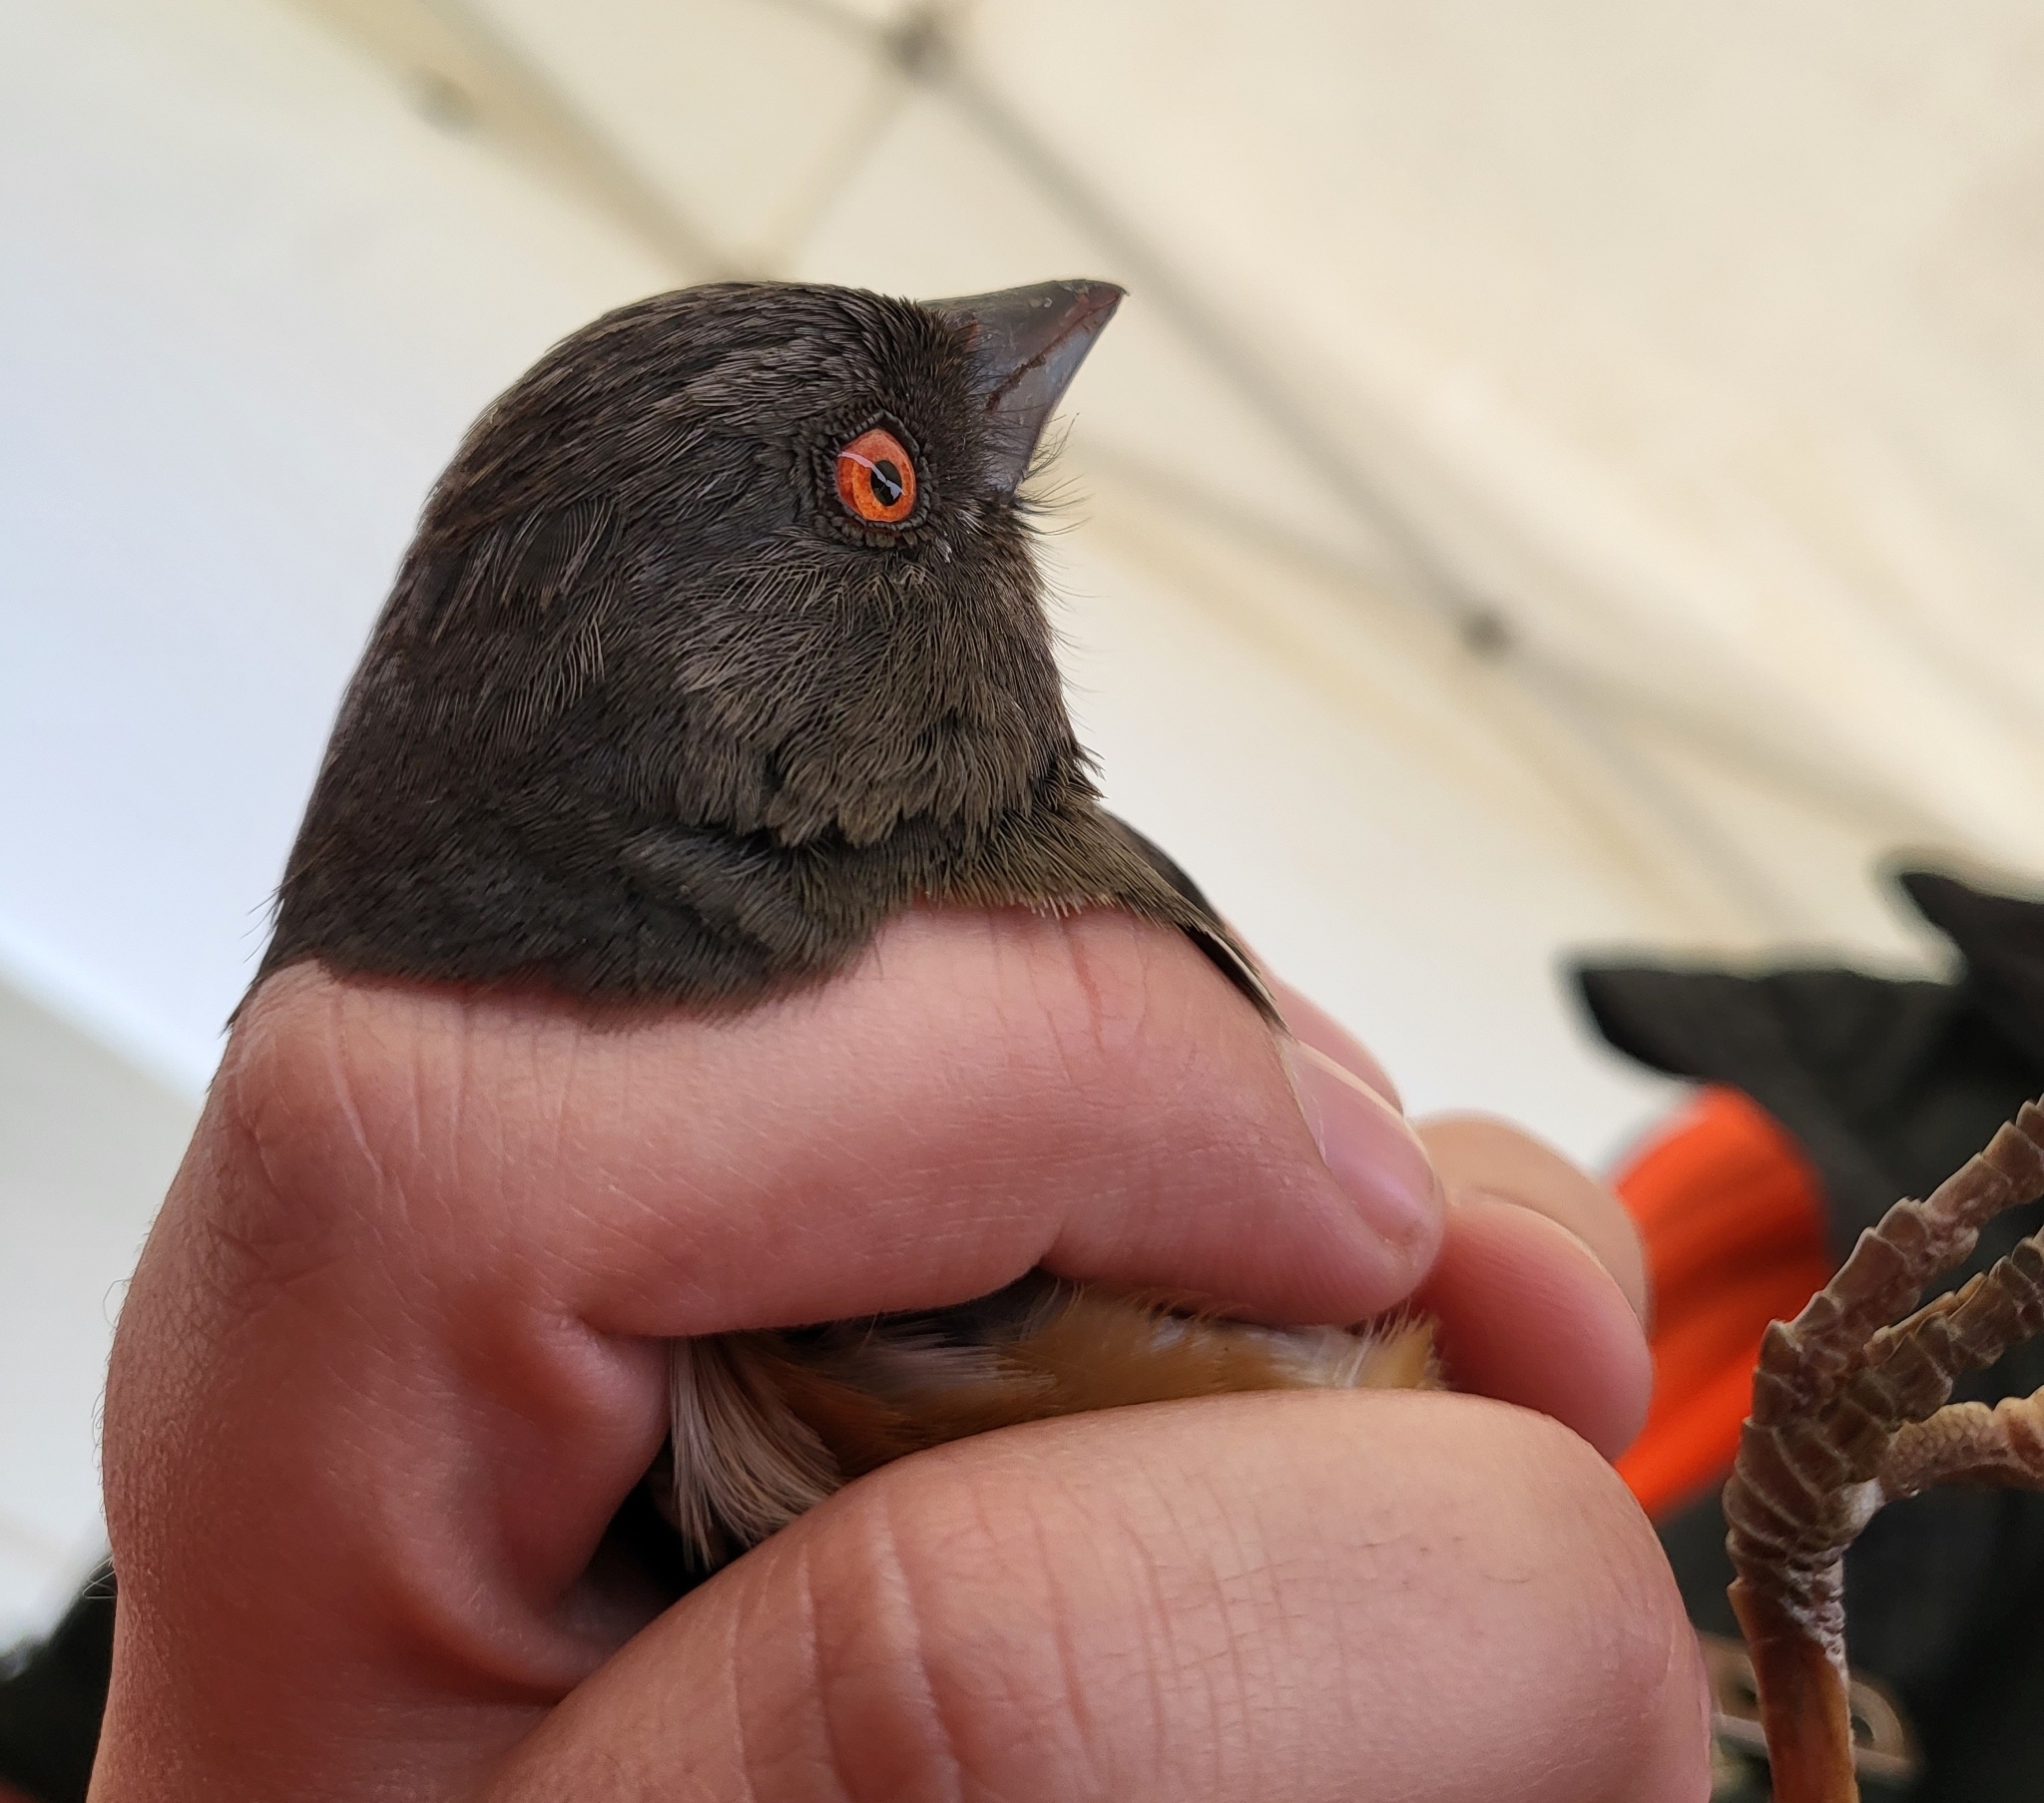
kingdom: Animalia
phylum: Chordata
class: Aves
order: Passeriformes
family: Passerellidae
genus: Pipilo
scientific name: Pipilo maculatus
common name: Spotted towhee
